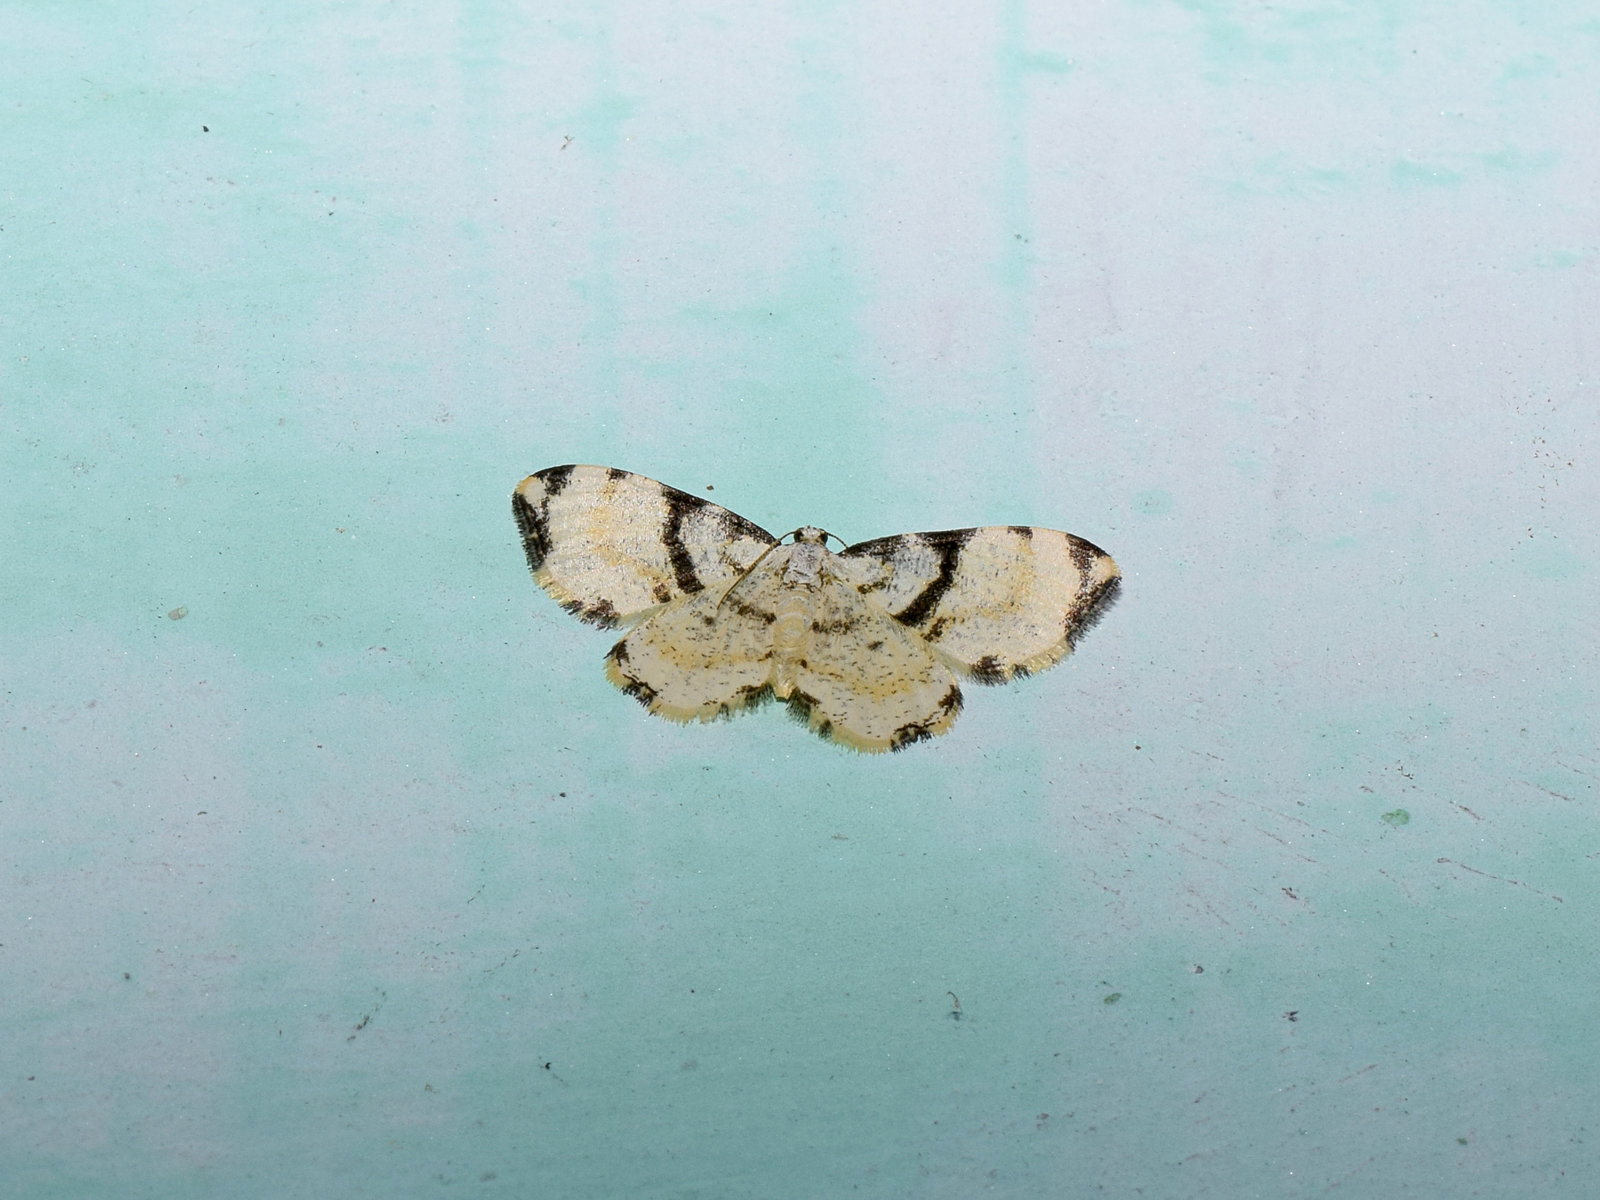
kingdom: Animalia
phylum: Arthropoda
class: Insecta
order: Lepidoptera
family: Geometridae
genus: Monocerotesa
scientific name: Monocerotesa
